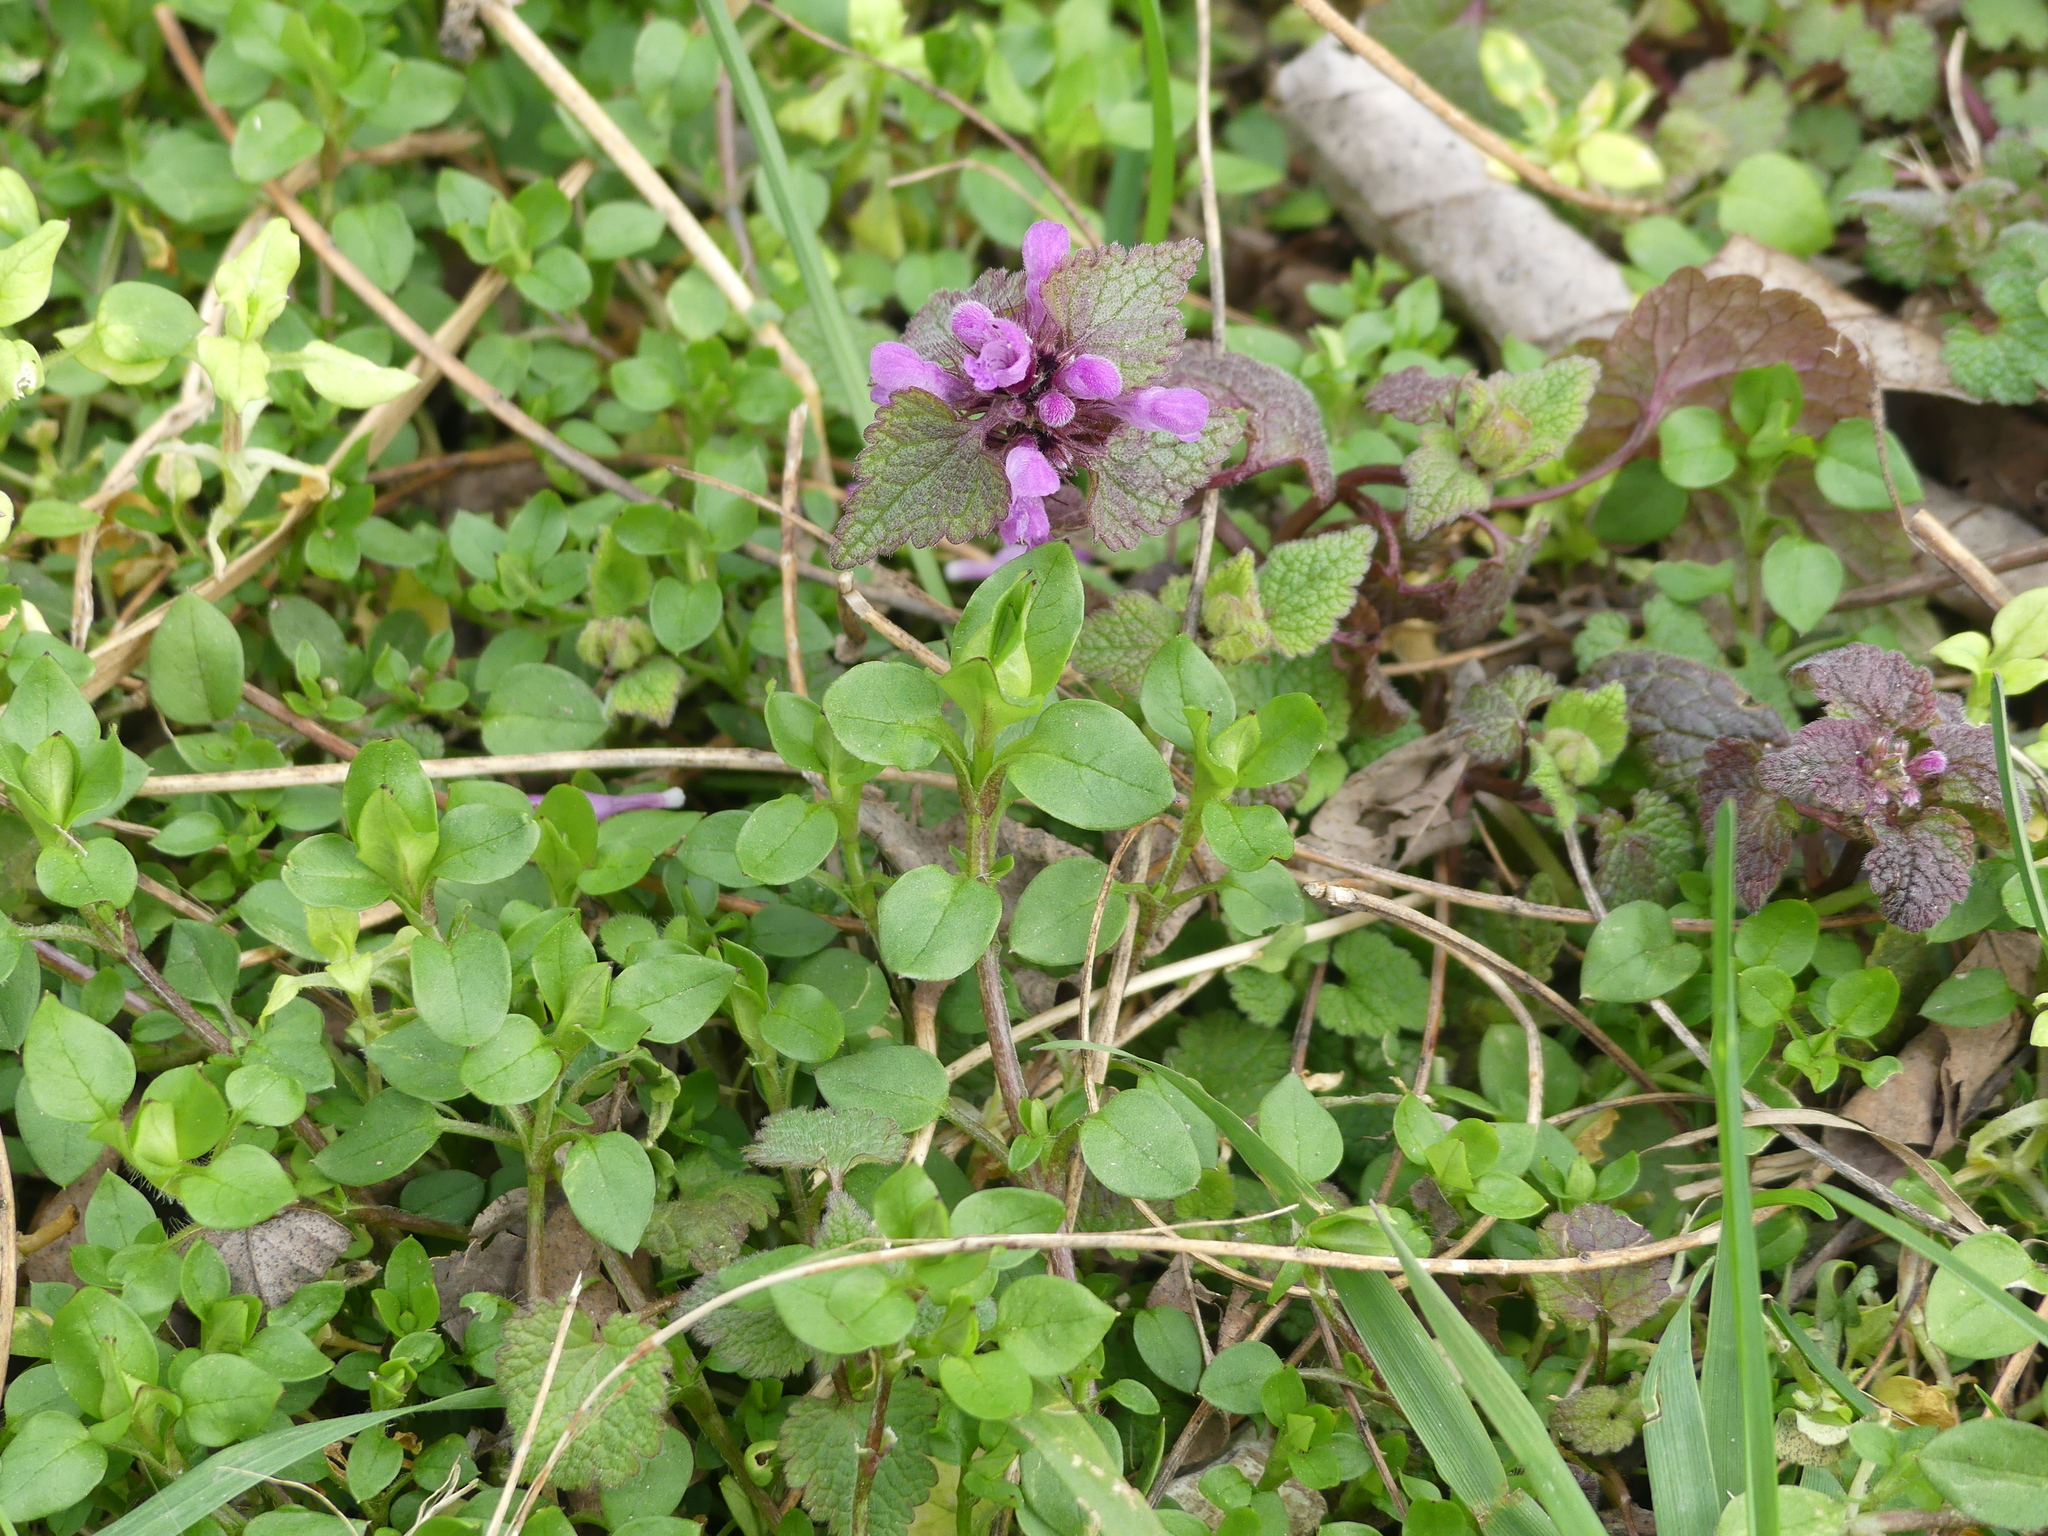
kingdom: Plantae
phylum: Tracheophyta
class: Magnoliopsida
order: Lamiales
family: Lamiaceae
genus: Lamium
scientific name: Lamium purpureum
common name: Red dead-nettle
